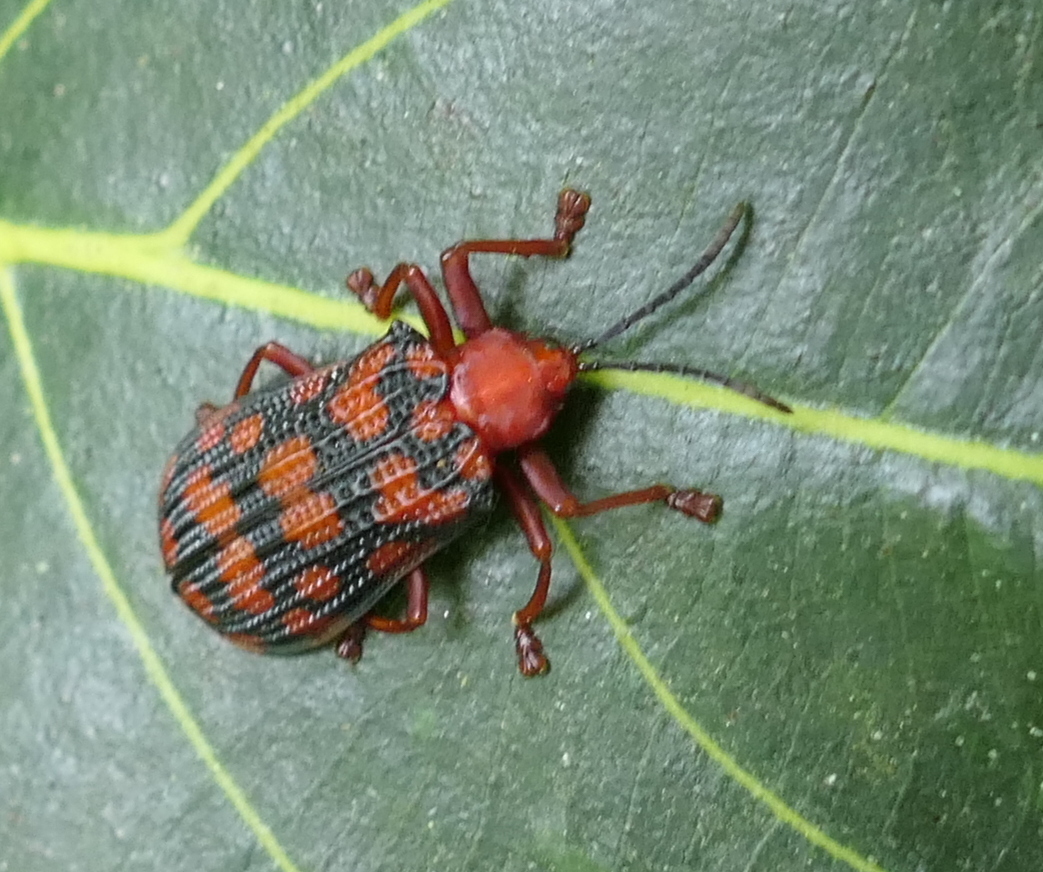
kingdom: Animalia
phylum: Arthropoda
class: Insecta
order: Coleoptera
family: Chrysomelidae
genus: Sceloenopla
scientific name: Sceloenopla maculata
